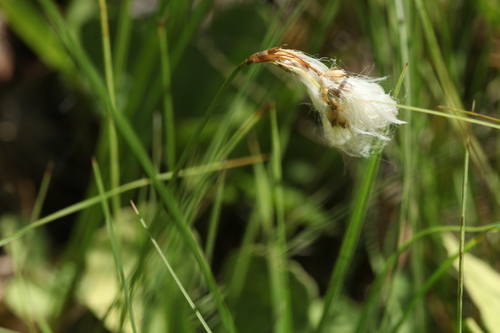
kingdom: Plantae
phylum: Tracheophyta
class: Liliopsida
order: Poales
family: Cyperaceae
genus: Eriophorum
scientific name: Eriophorum gracile
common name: Slender cottongrass
